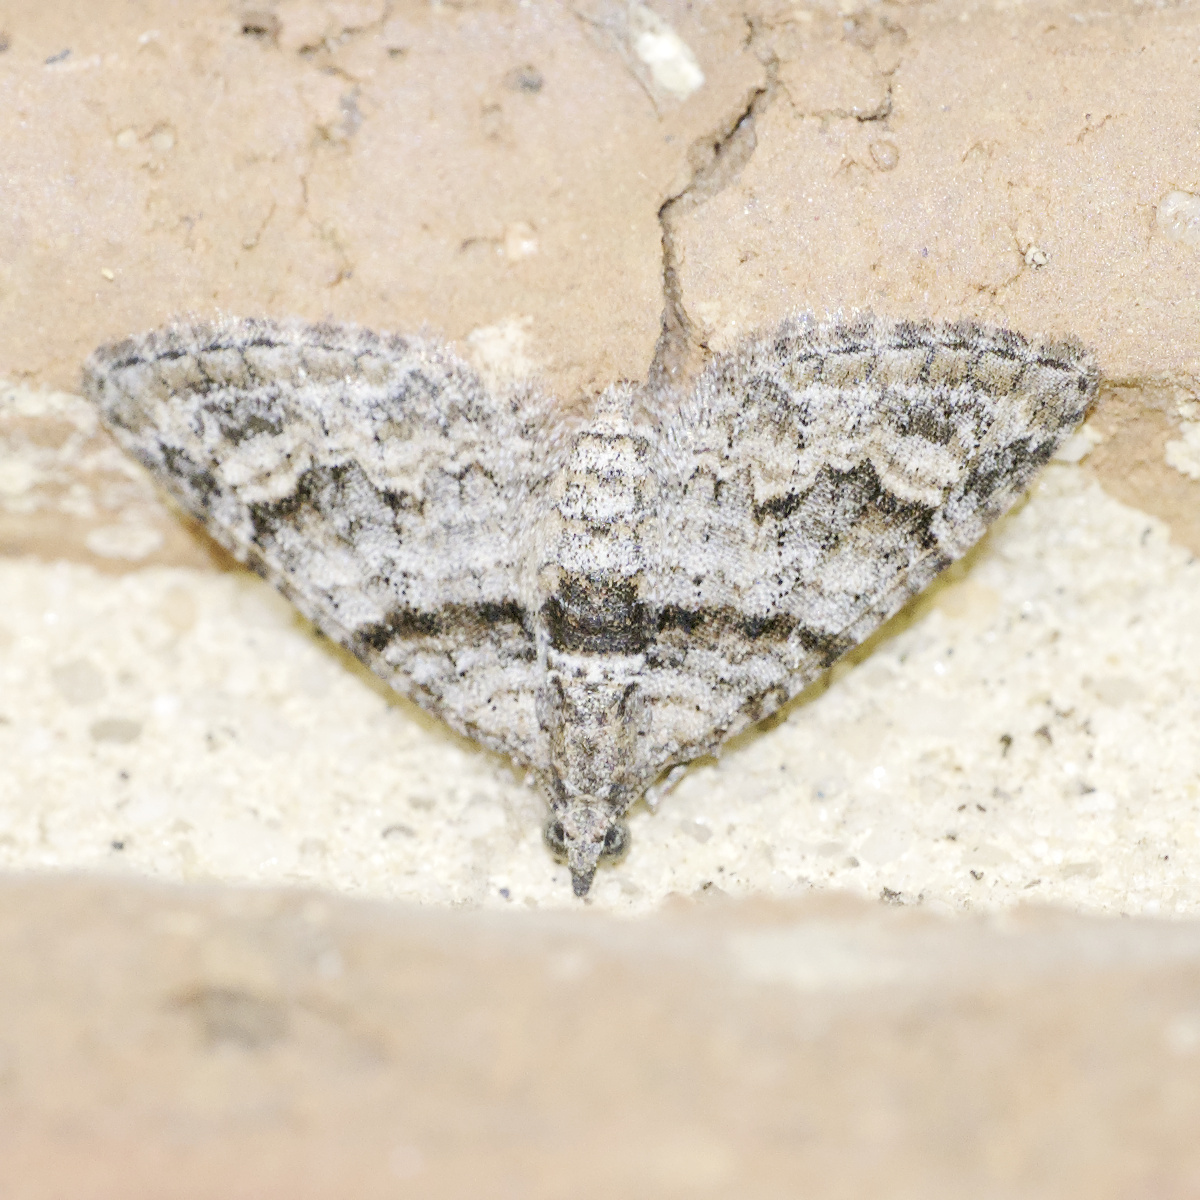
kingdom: Animalia
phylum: Arthropoda
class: Insecta
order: Lepidoptera
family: Geometridae
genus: Phrissogonus
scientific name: Phrissogonus laticostata
